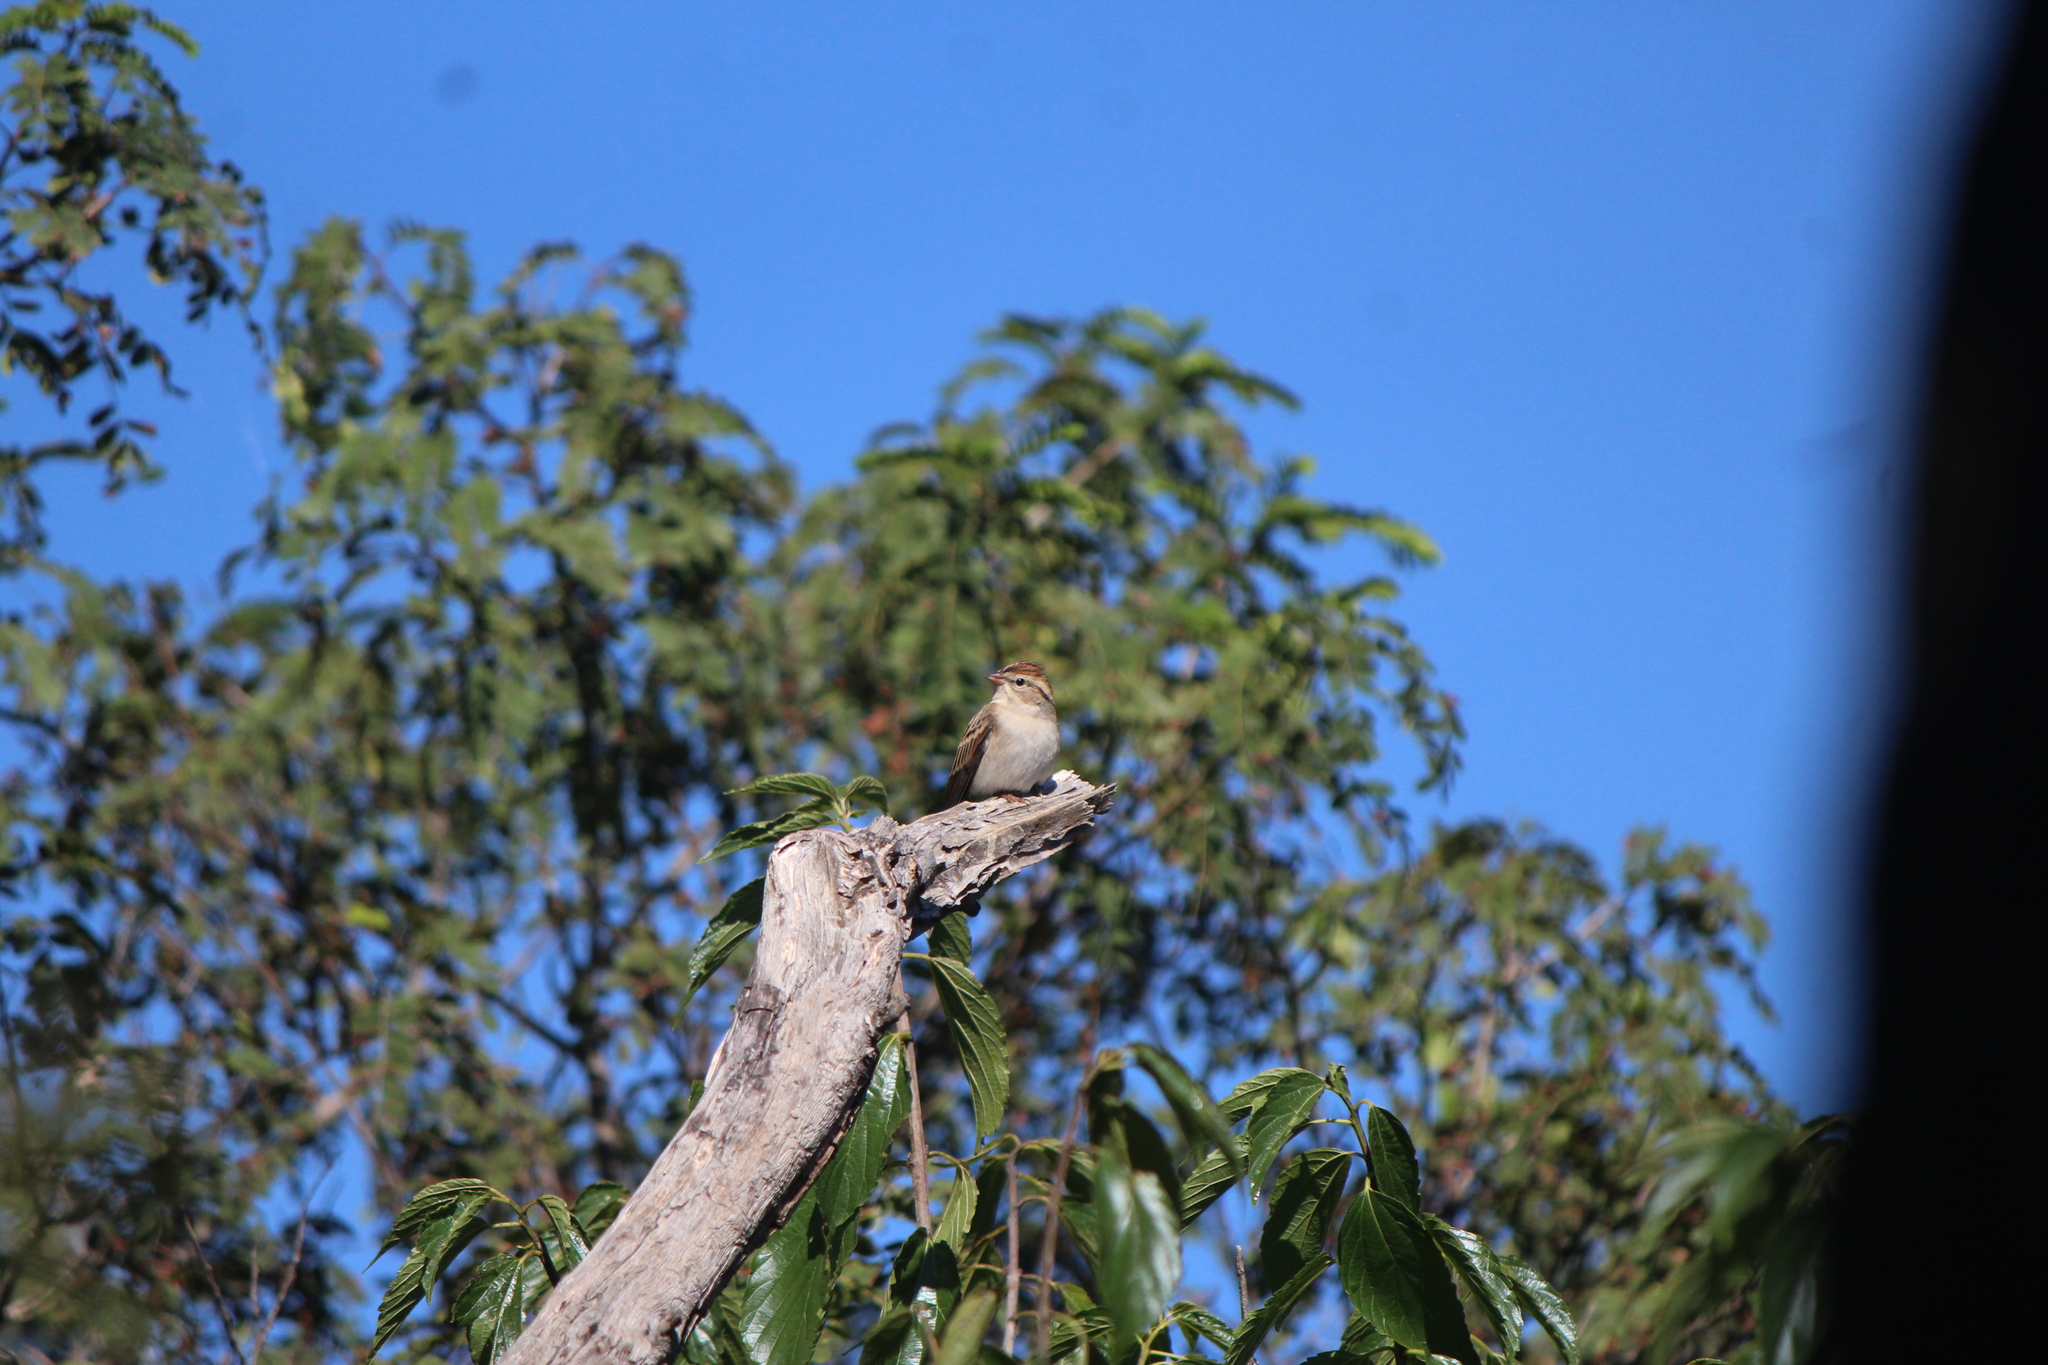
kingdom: Animalia
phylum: Chordata
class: Aves
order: Passeriformes
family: Passerellidae
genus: Spizella
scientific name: Spizella passerina
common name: Chipping sparrow
